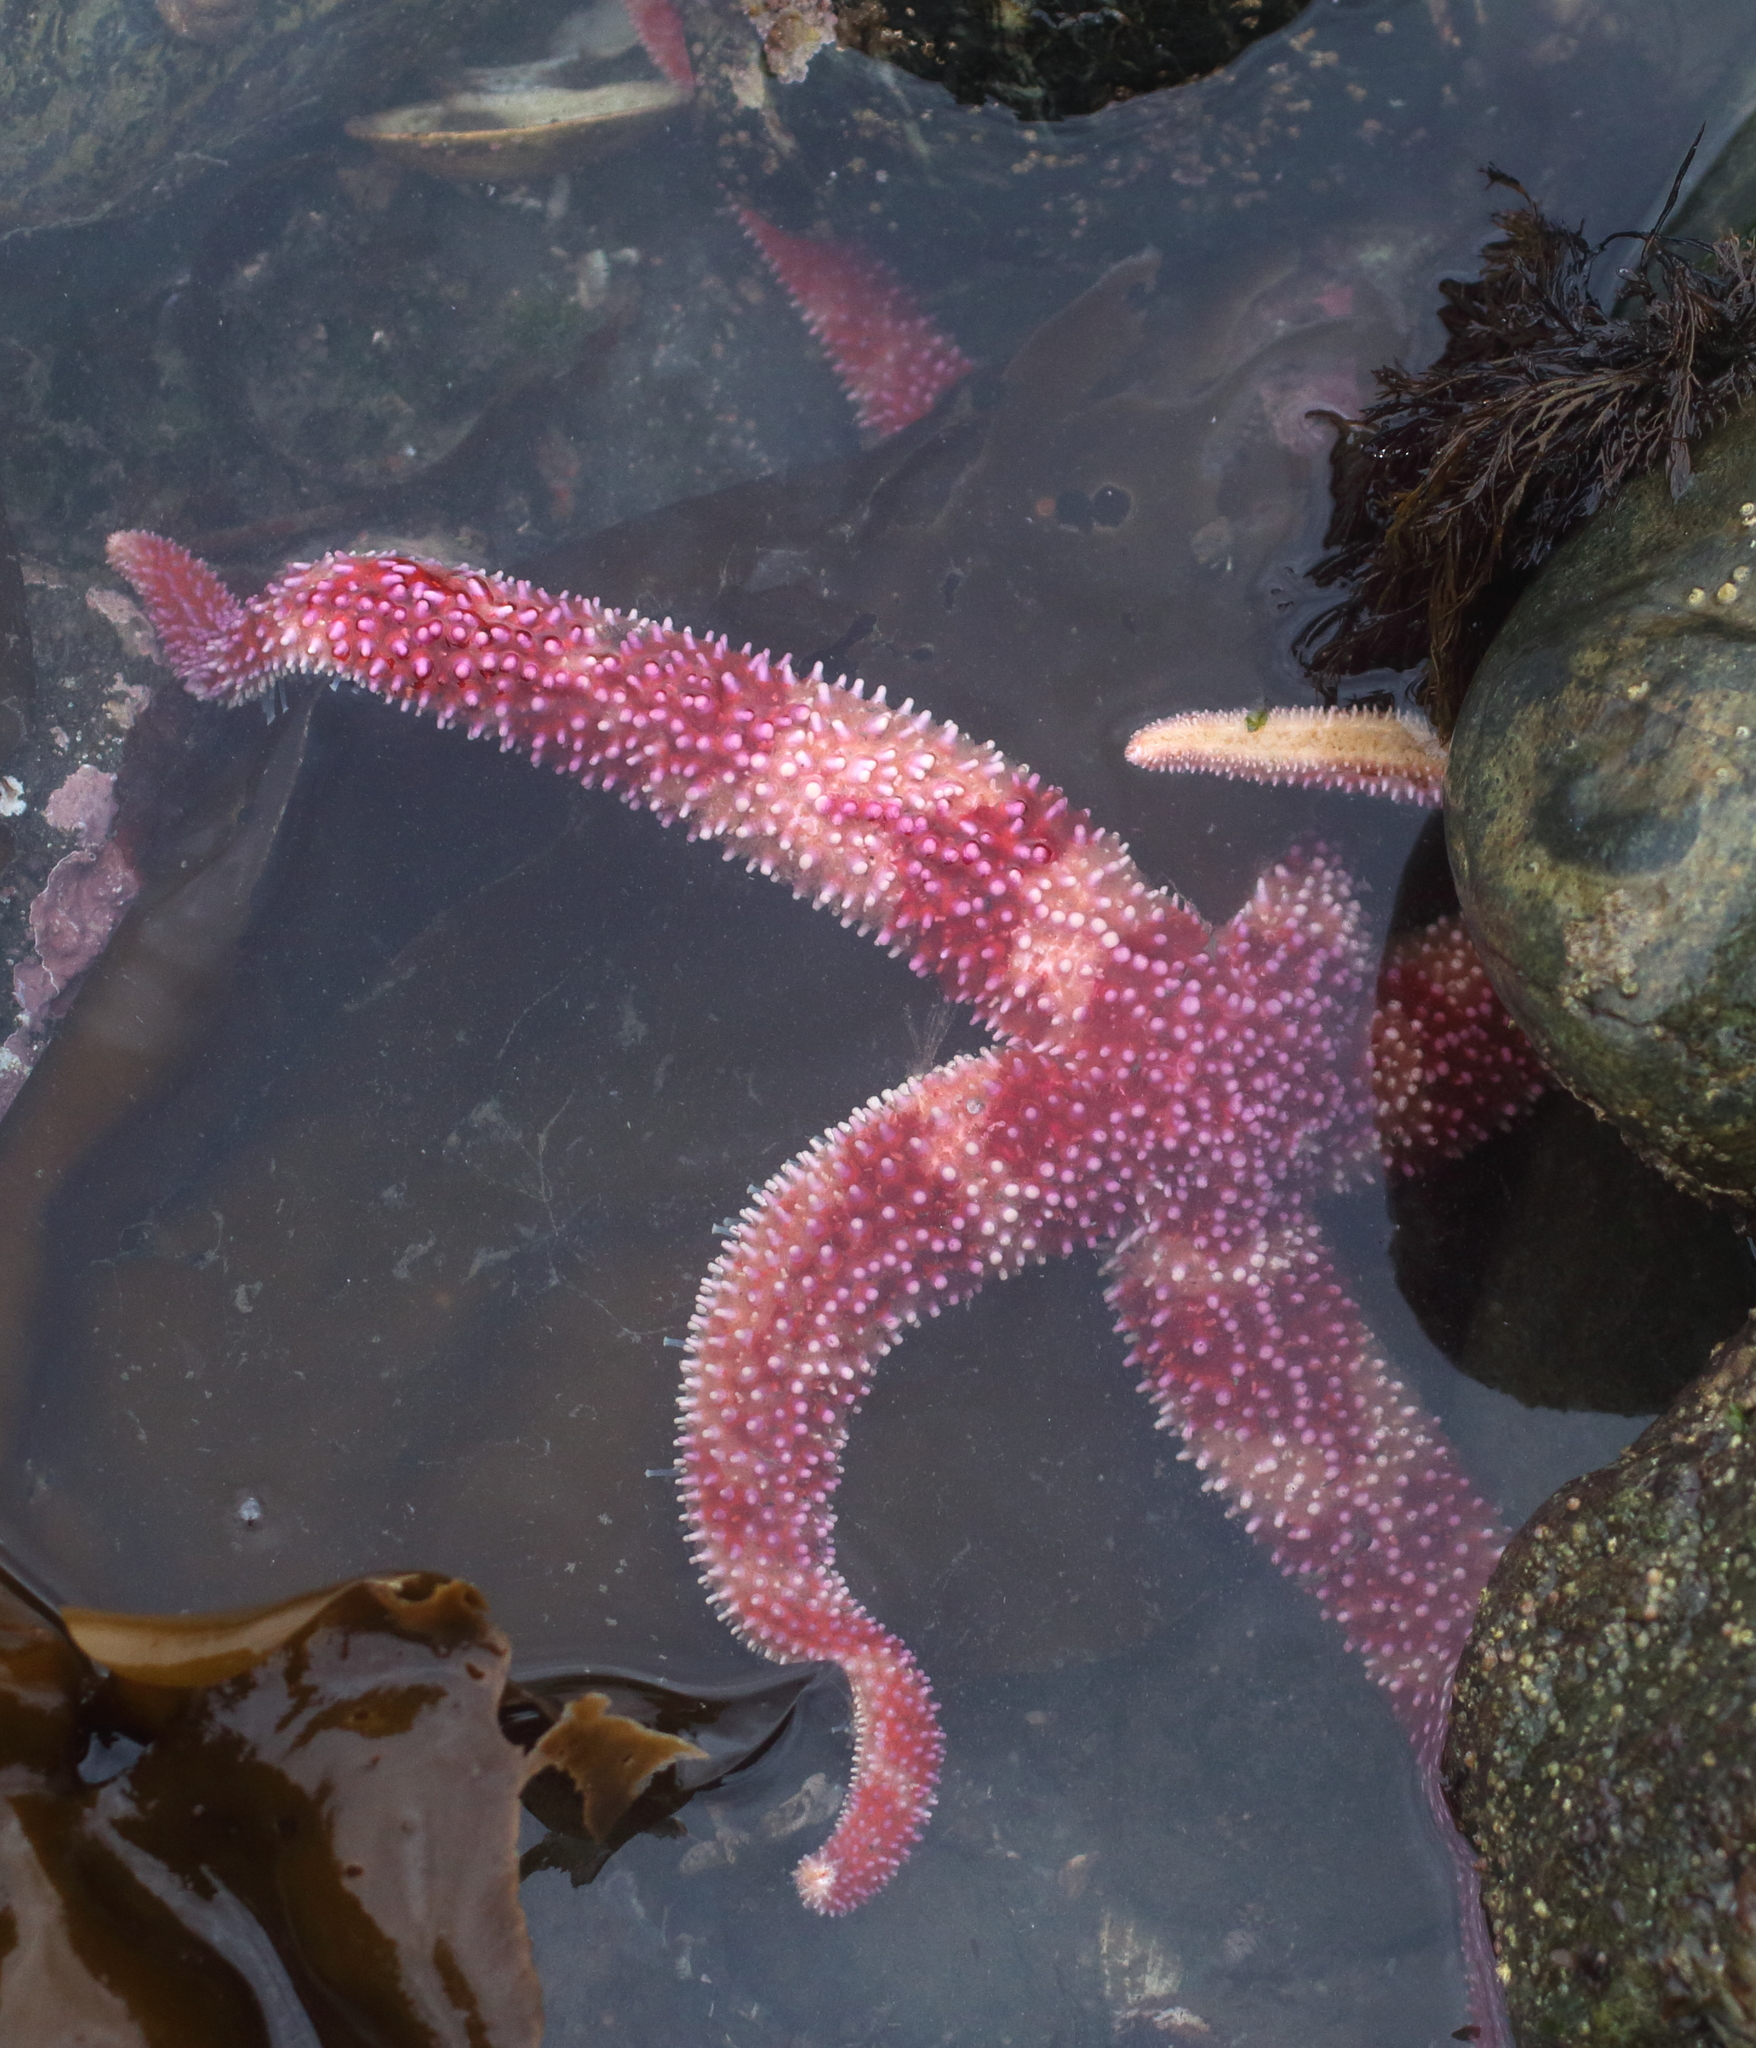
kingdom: Animalia
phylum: Echinodermata
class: Asteroidea
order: Forcipulatida
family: Asteriidae
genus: Orthasterias
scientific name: Orthasterias koehleri
